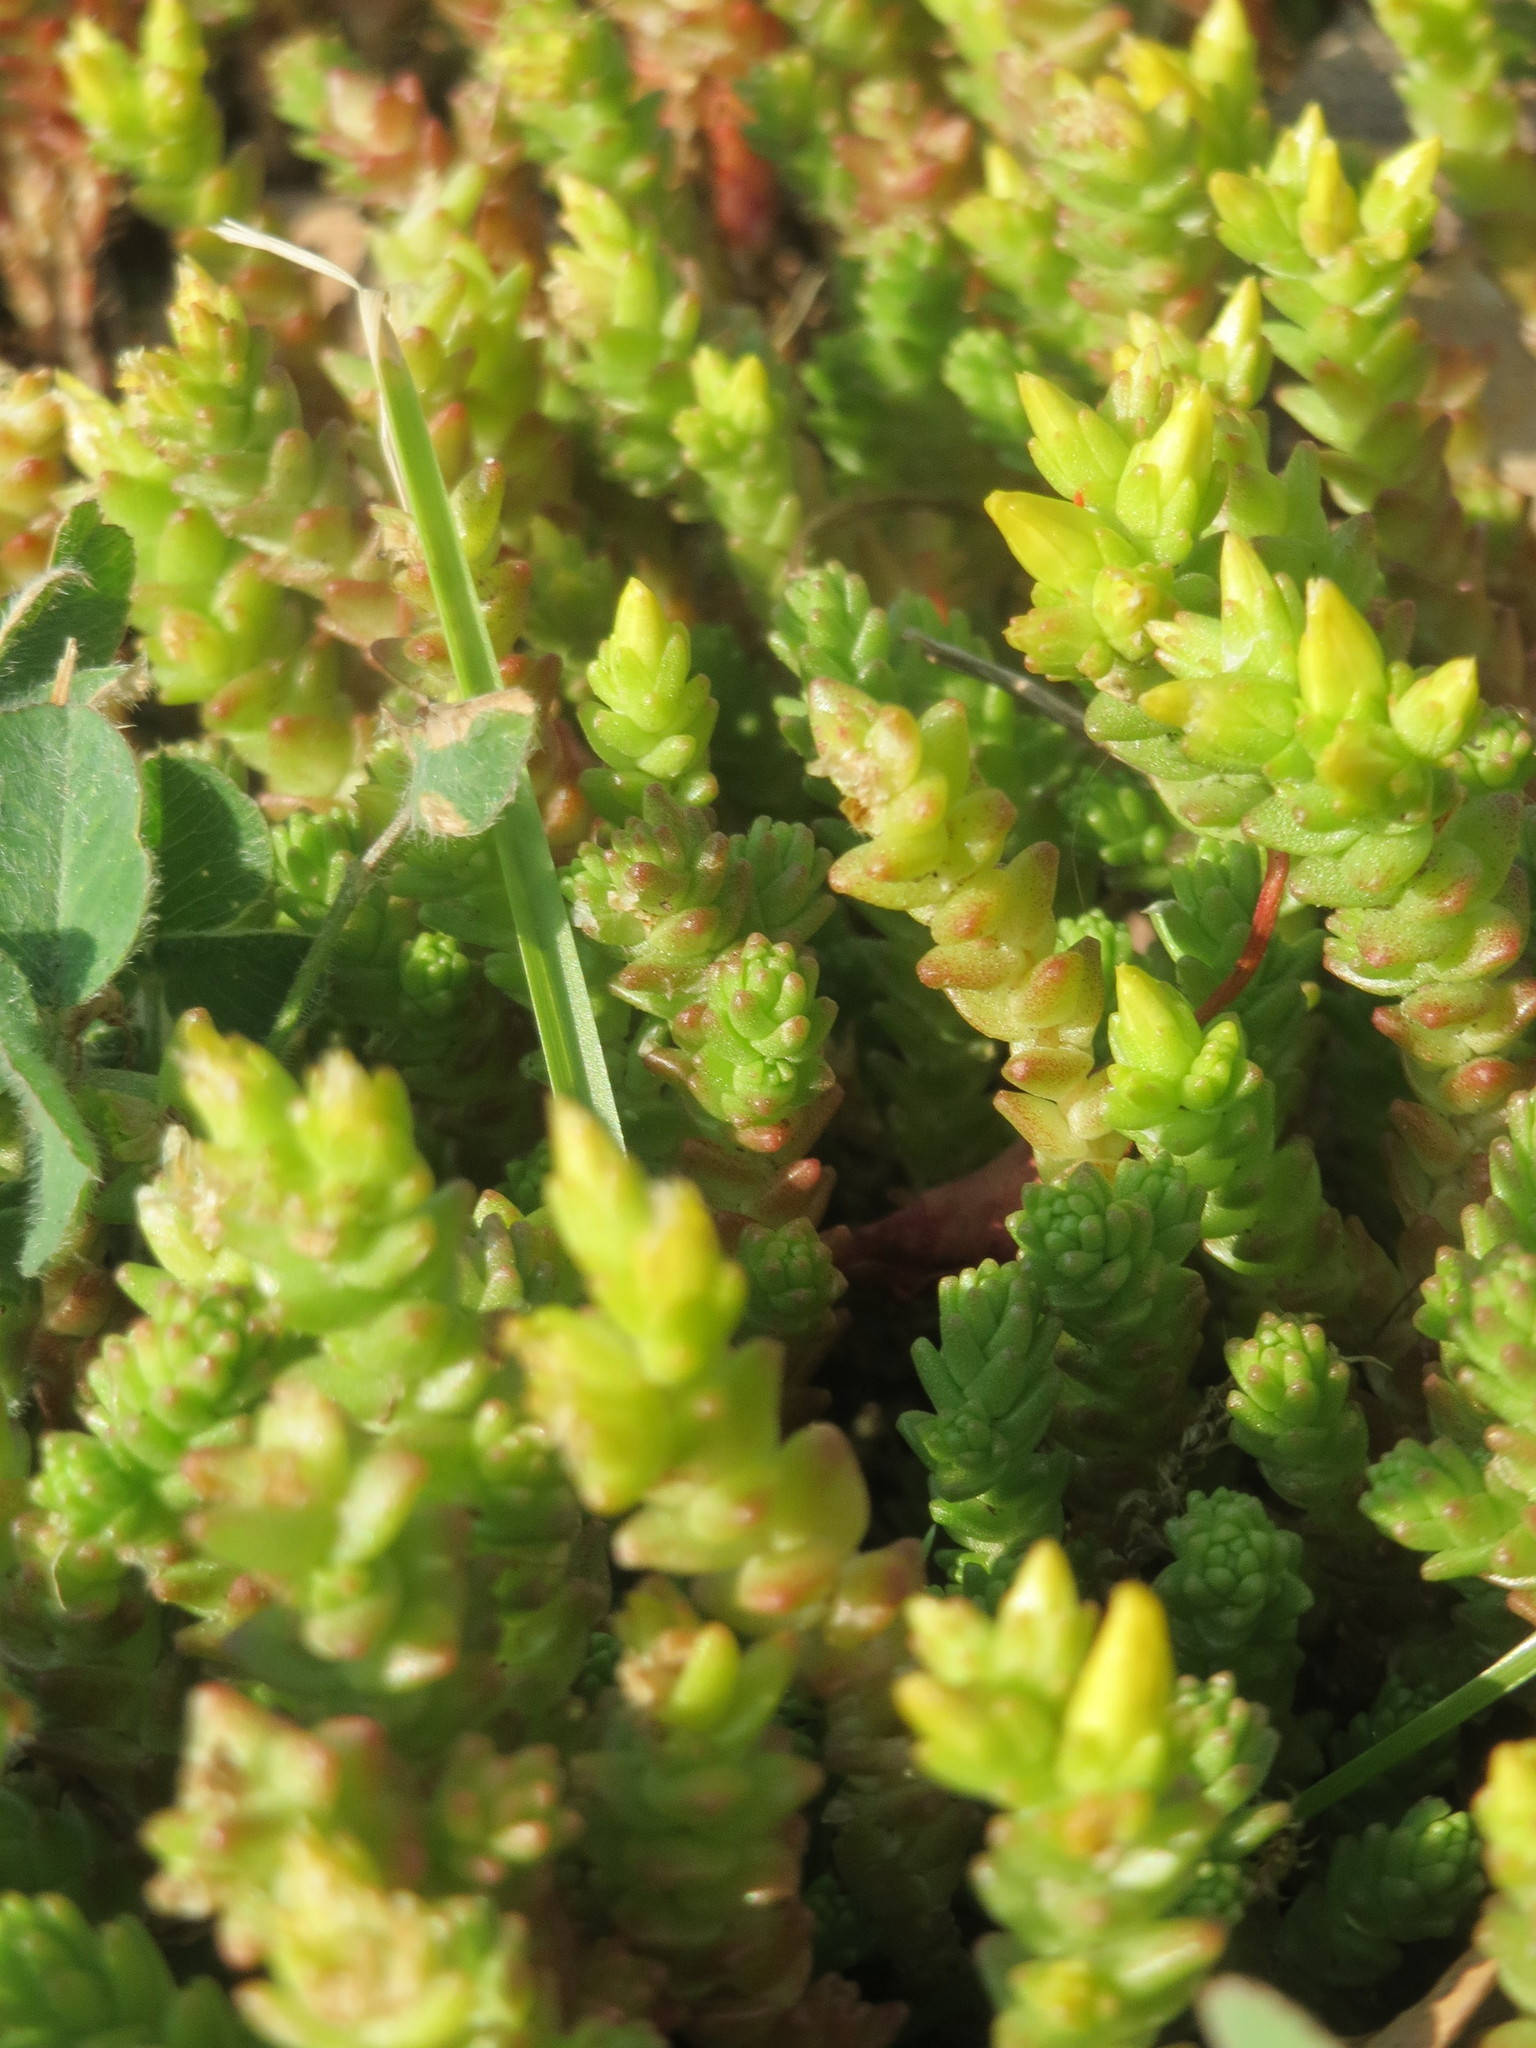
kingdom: Plantae
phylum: Tracheophyta
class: Magnoliopsida
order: Saxifragales
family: Crassulaceae
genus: Sedum
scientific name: Sedum acre
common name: Biting stonecrop
